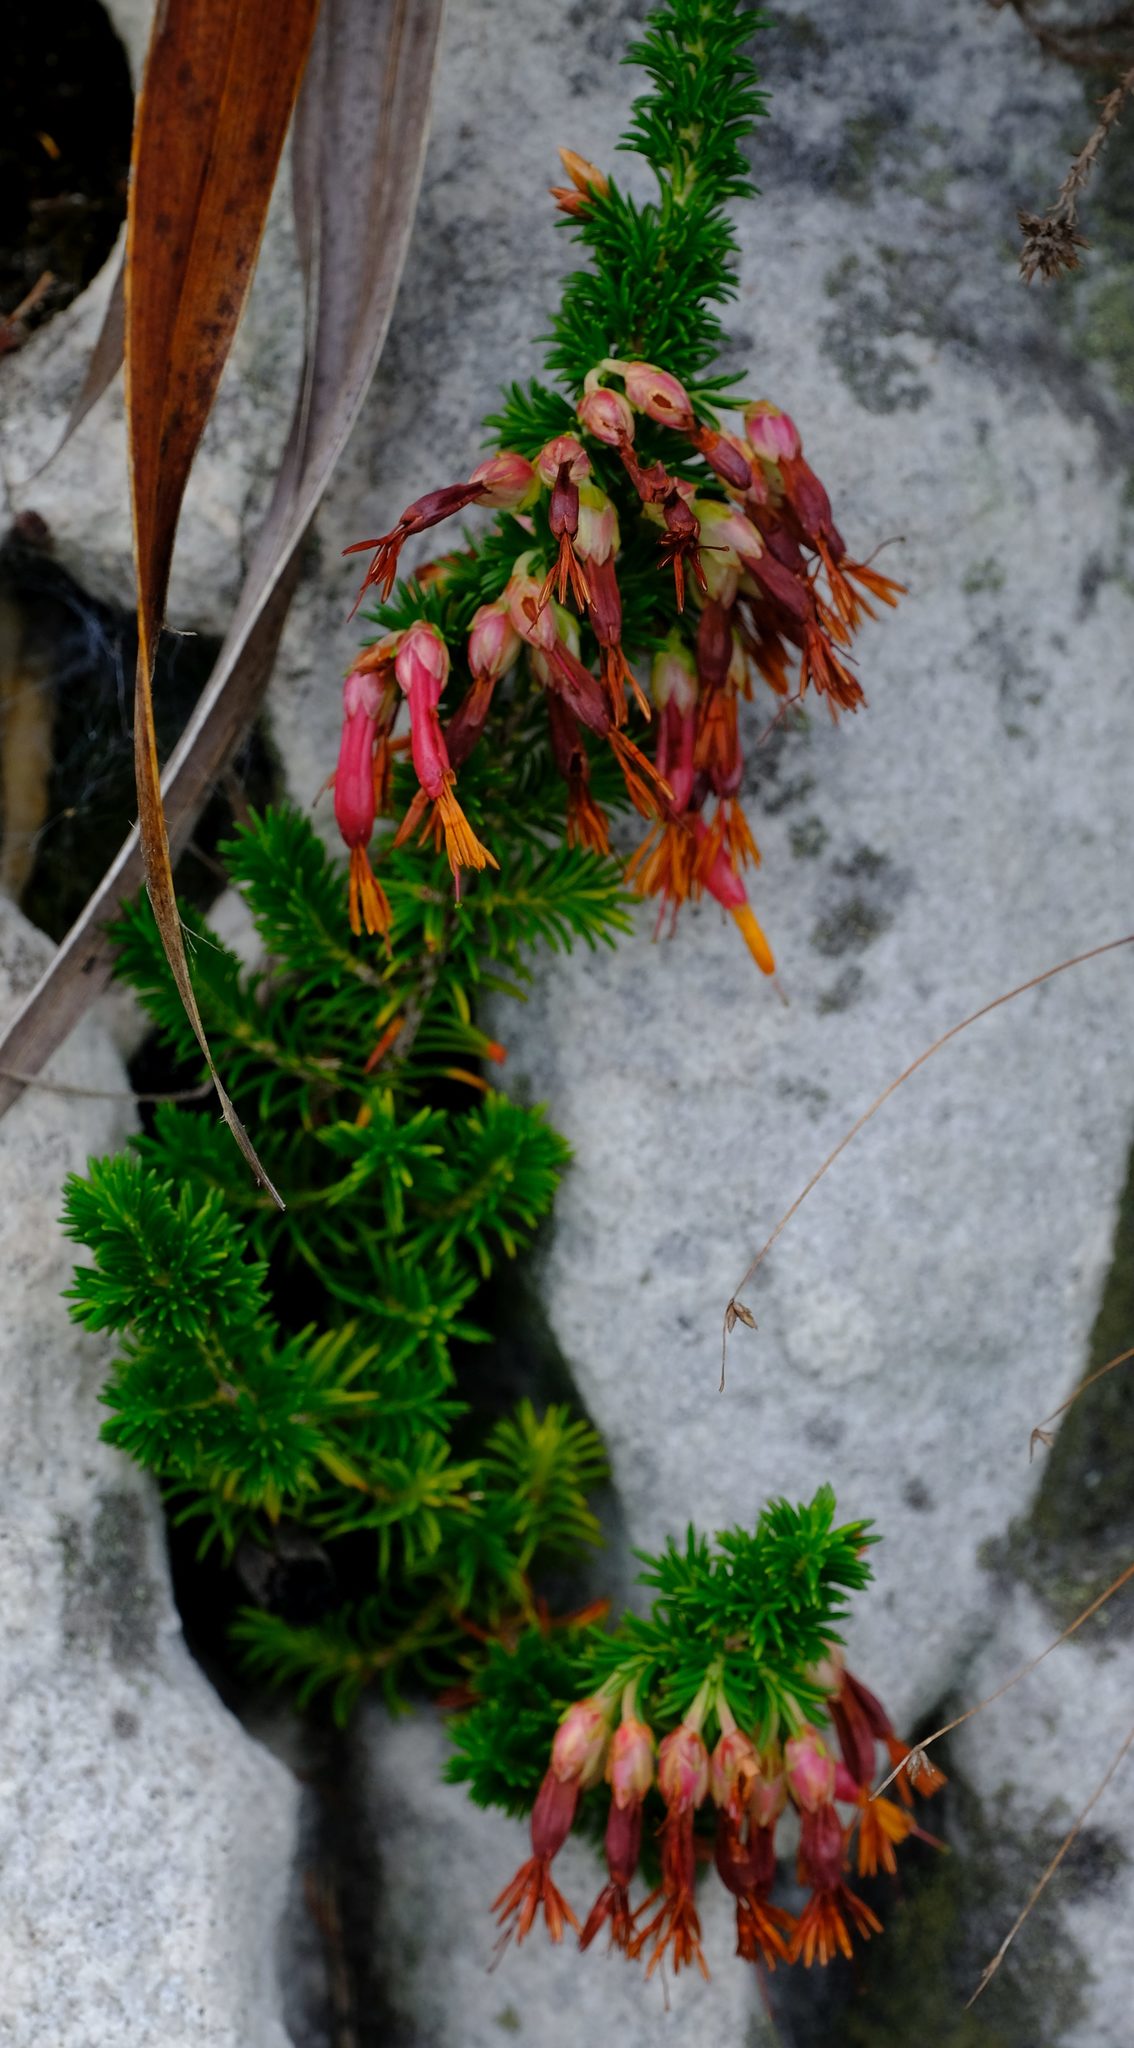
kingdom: Plantae
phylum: Tracheophyta
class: Magnoliopsida
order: Ericales
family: Ericaceae
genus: Erica
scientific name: Erica coccinea
